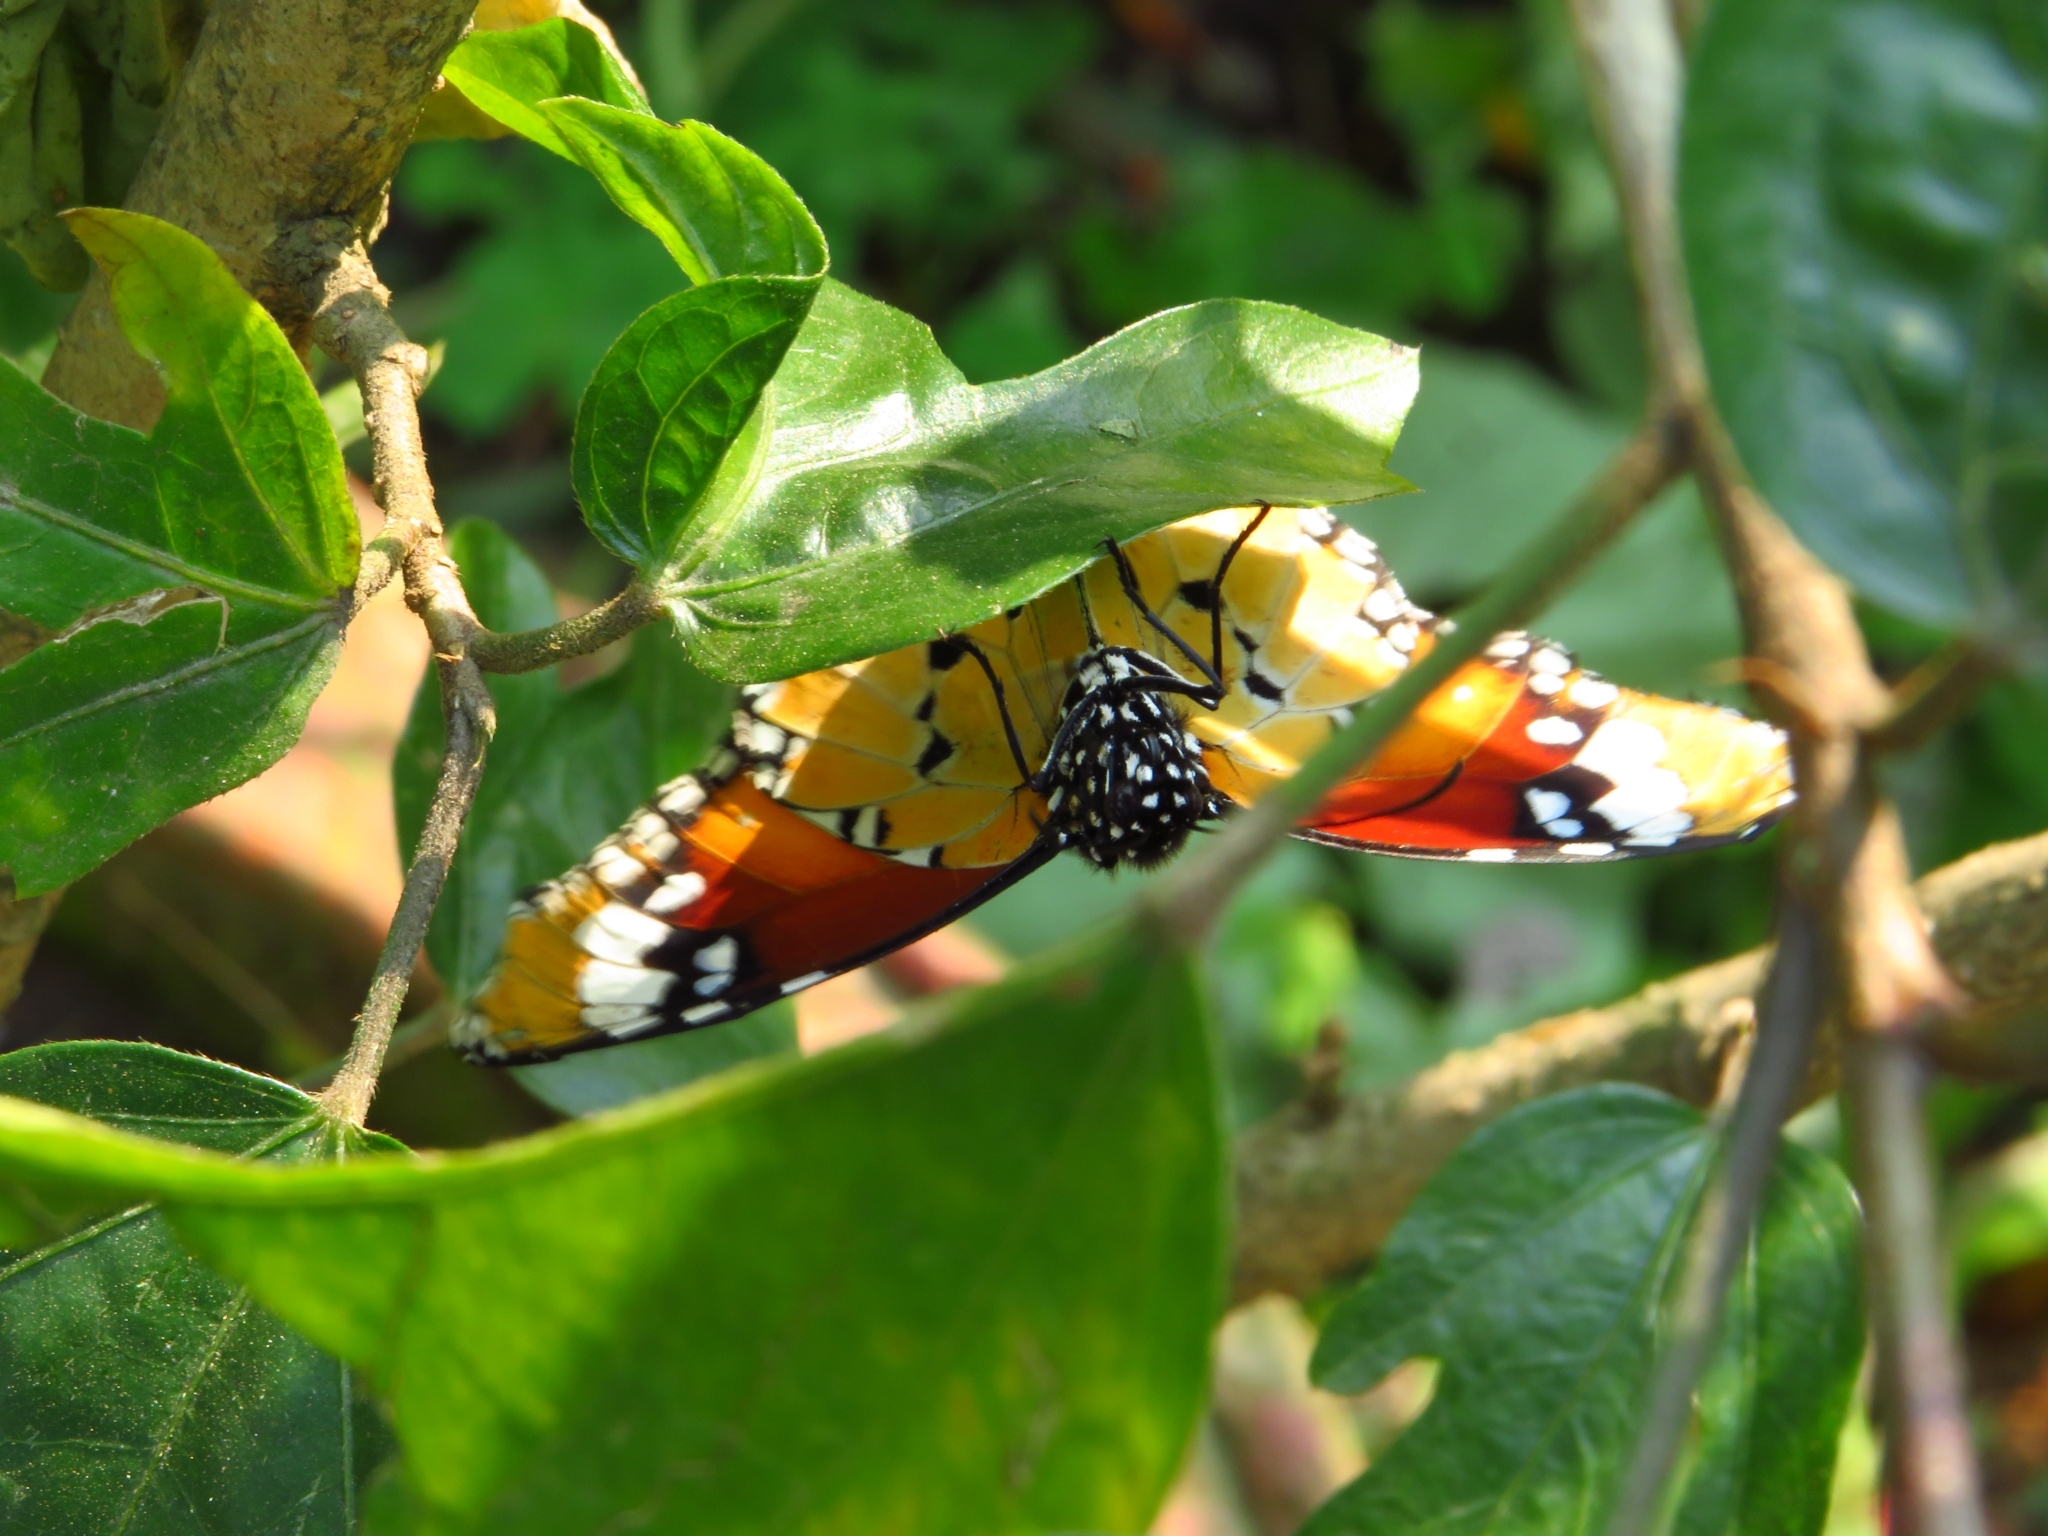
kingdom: Animalia
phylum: Arthropoda
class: Insecta
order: Lepidoptera
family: Nymphalidae
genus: Danaus
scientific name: Danaus chrysippus
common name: Plain tiger
